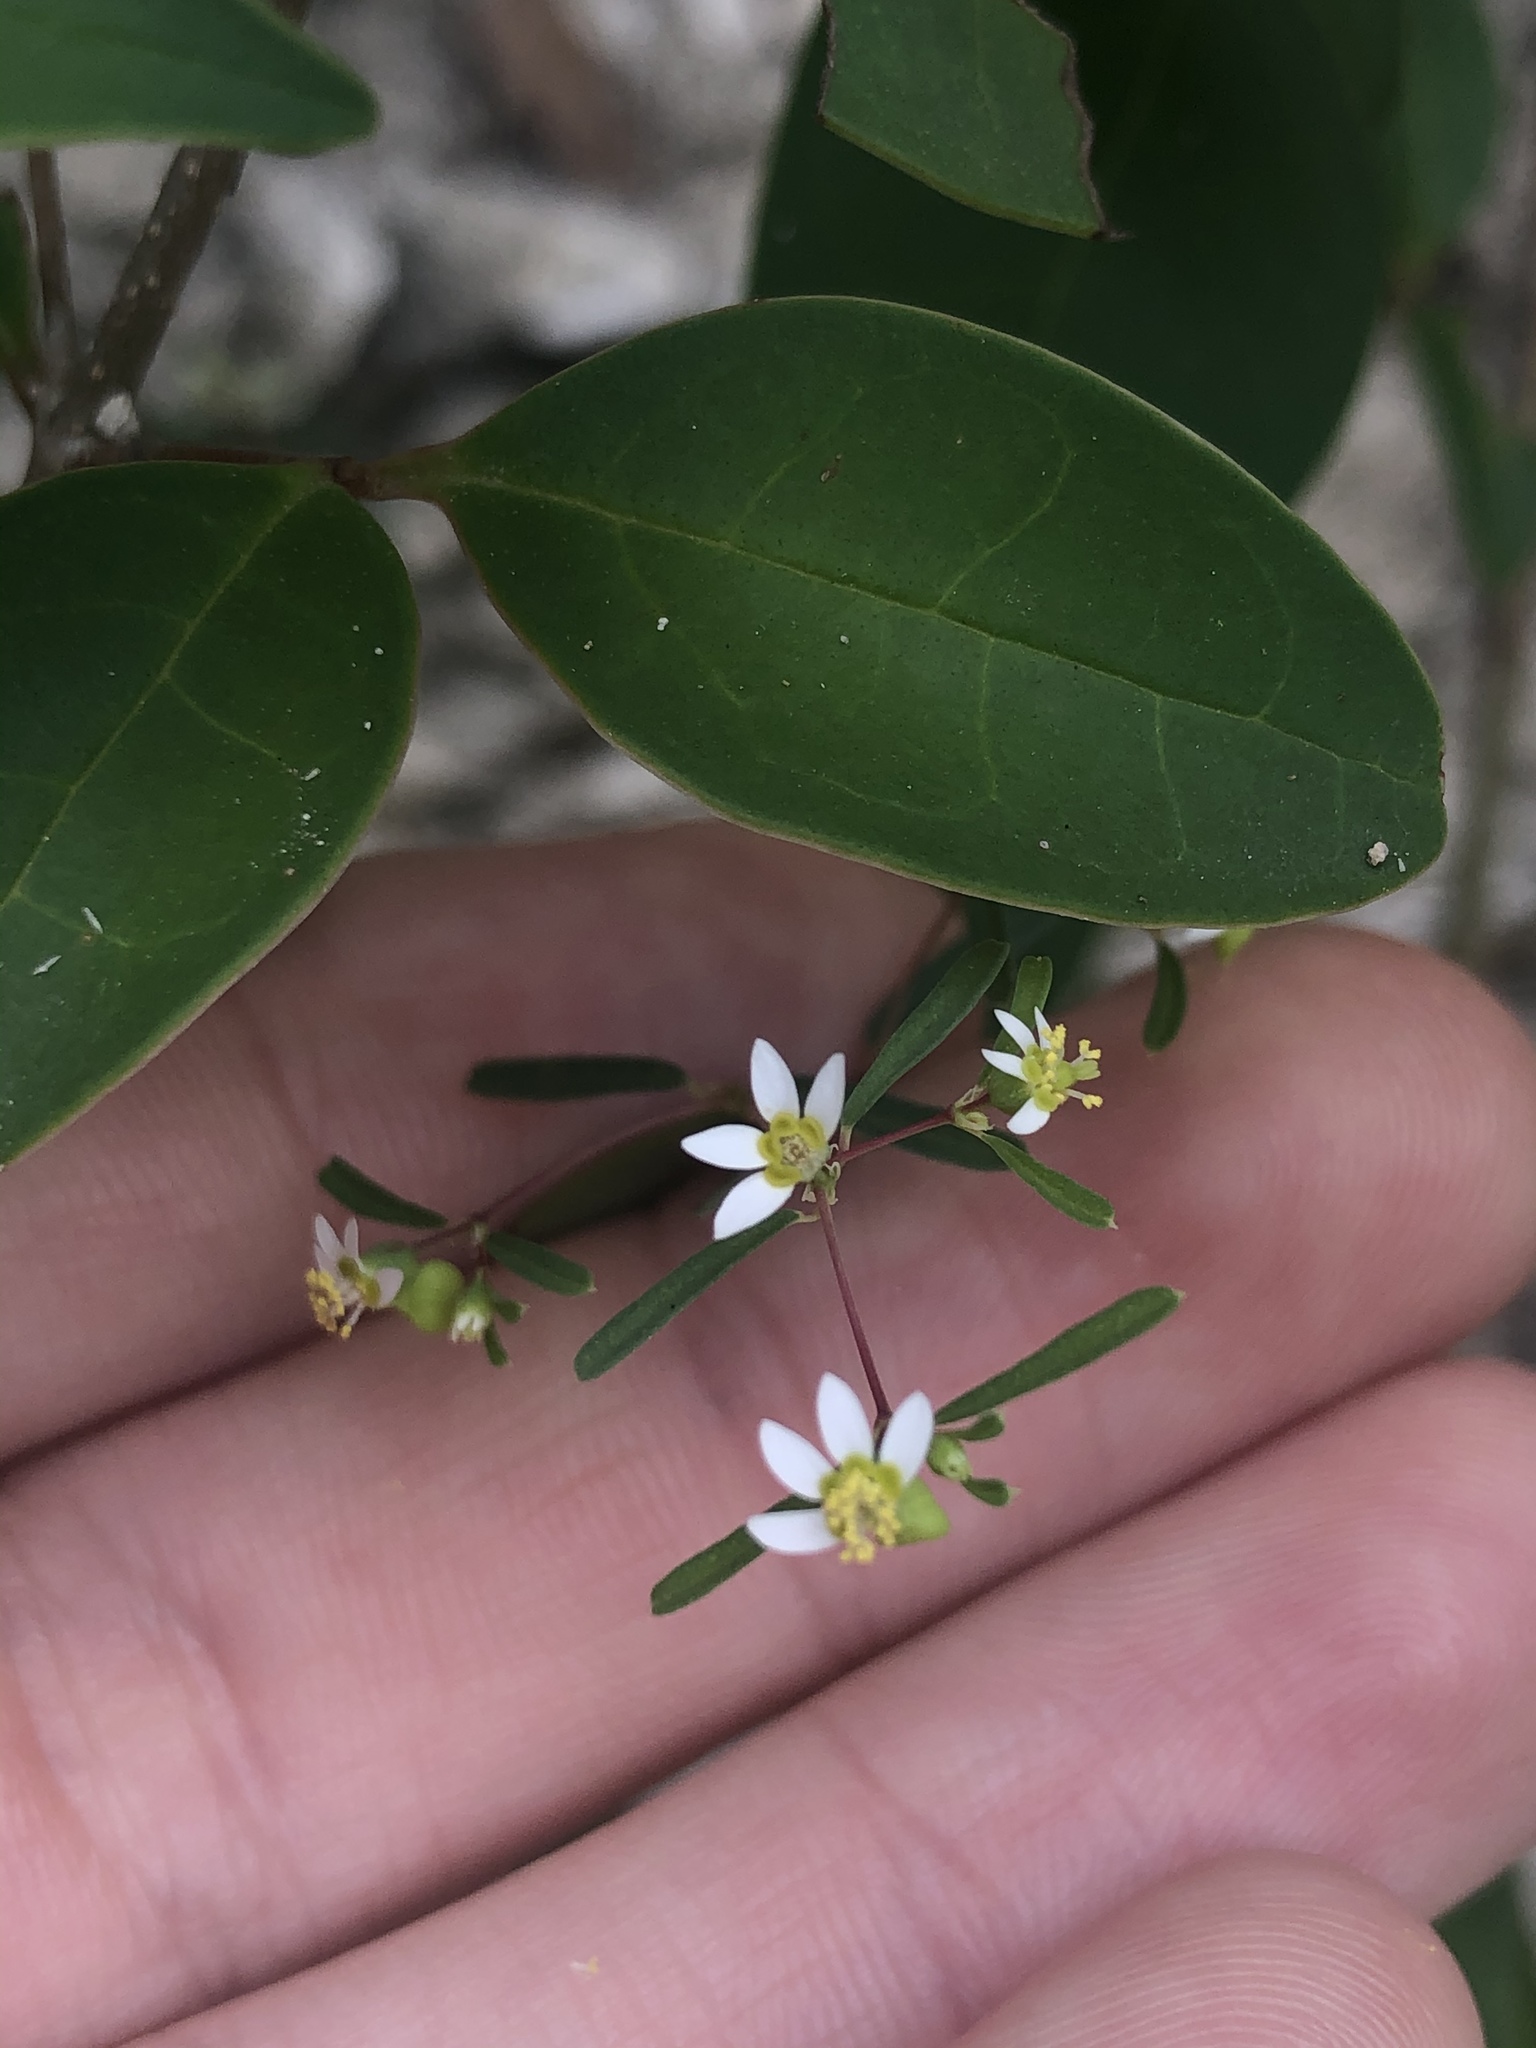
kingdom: Plantae
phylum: Tracheophyta
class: Magnoliopsida
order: Malpighiales
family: Euphorbiaceae
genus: Euphorbia
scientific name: Euphorbia missurica
